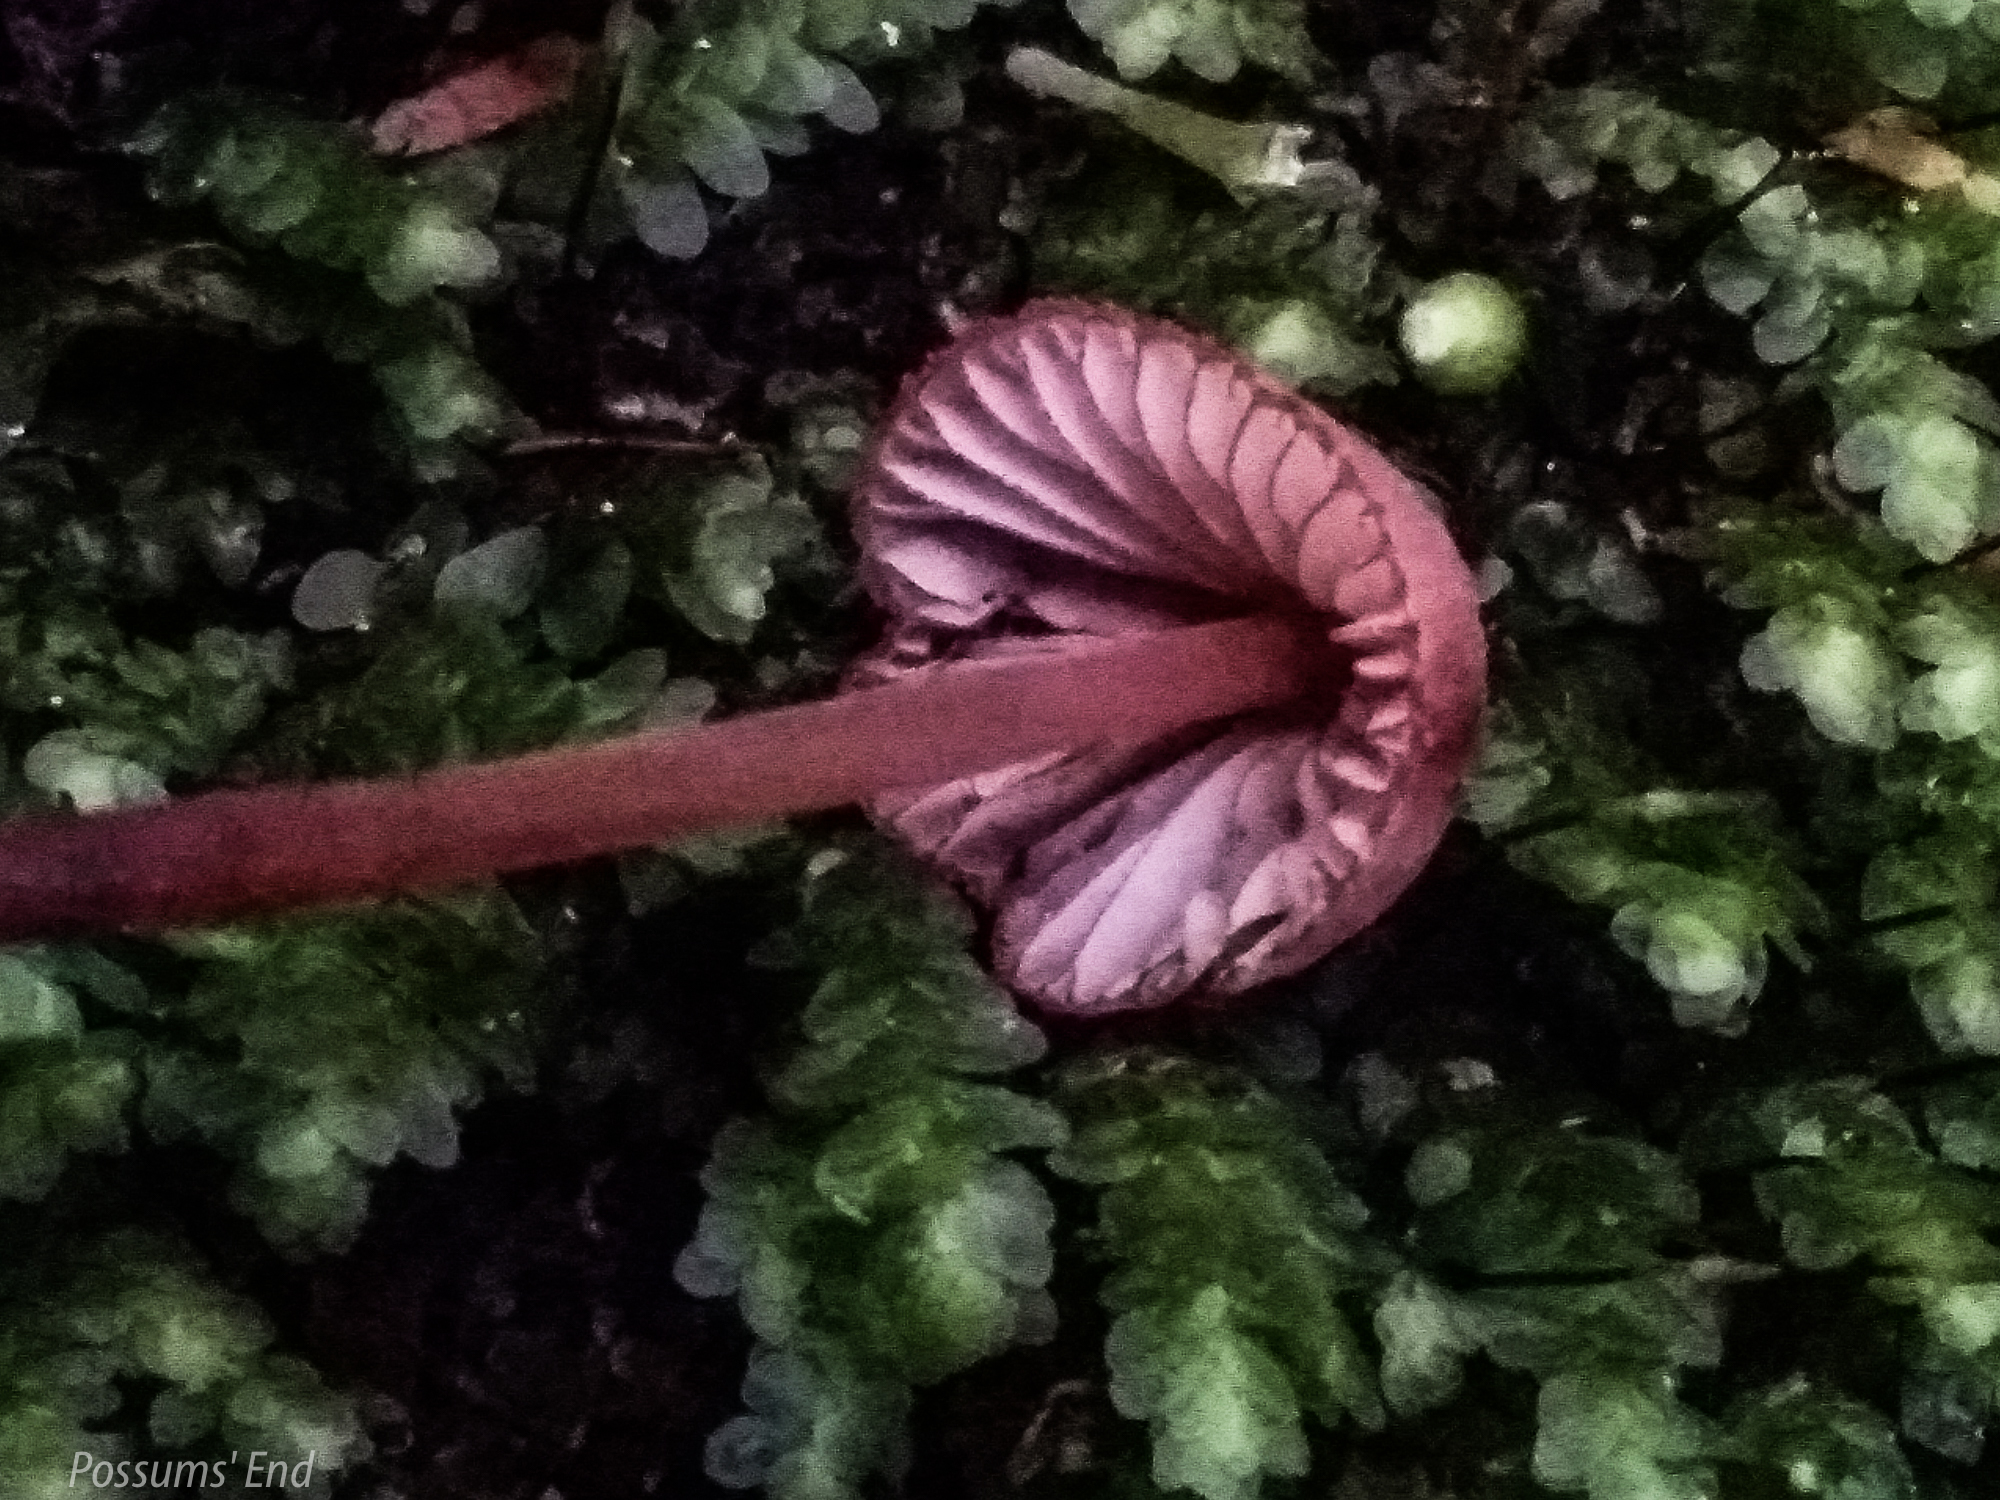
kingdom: Fungi
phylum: Basidiomycota
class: Agaricomycetes
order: Agaricales
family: Mycenaceae
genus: Mycena
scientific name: Mycena mariae
